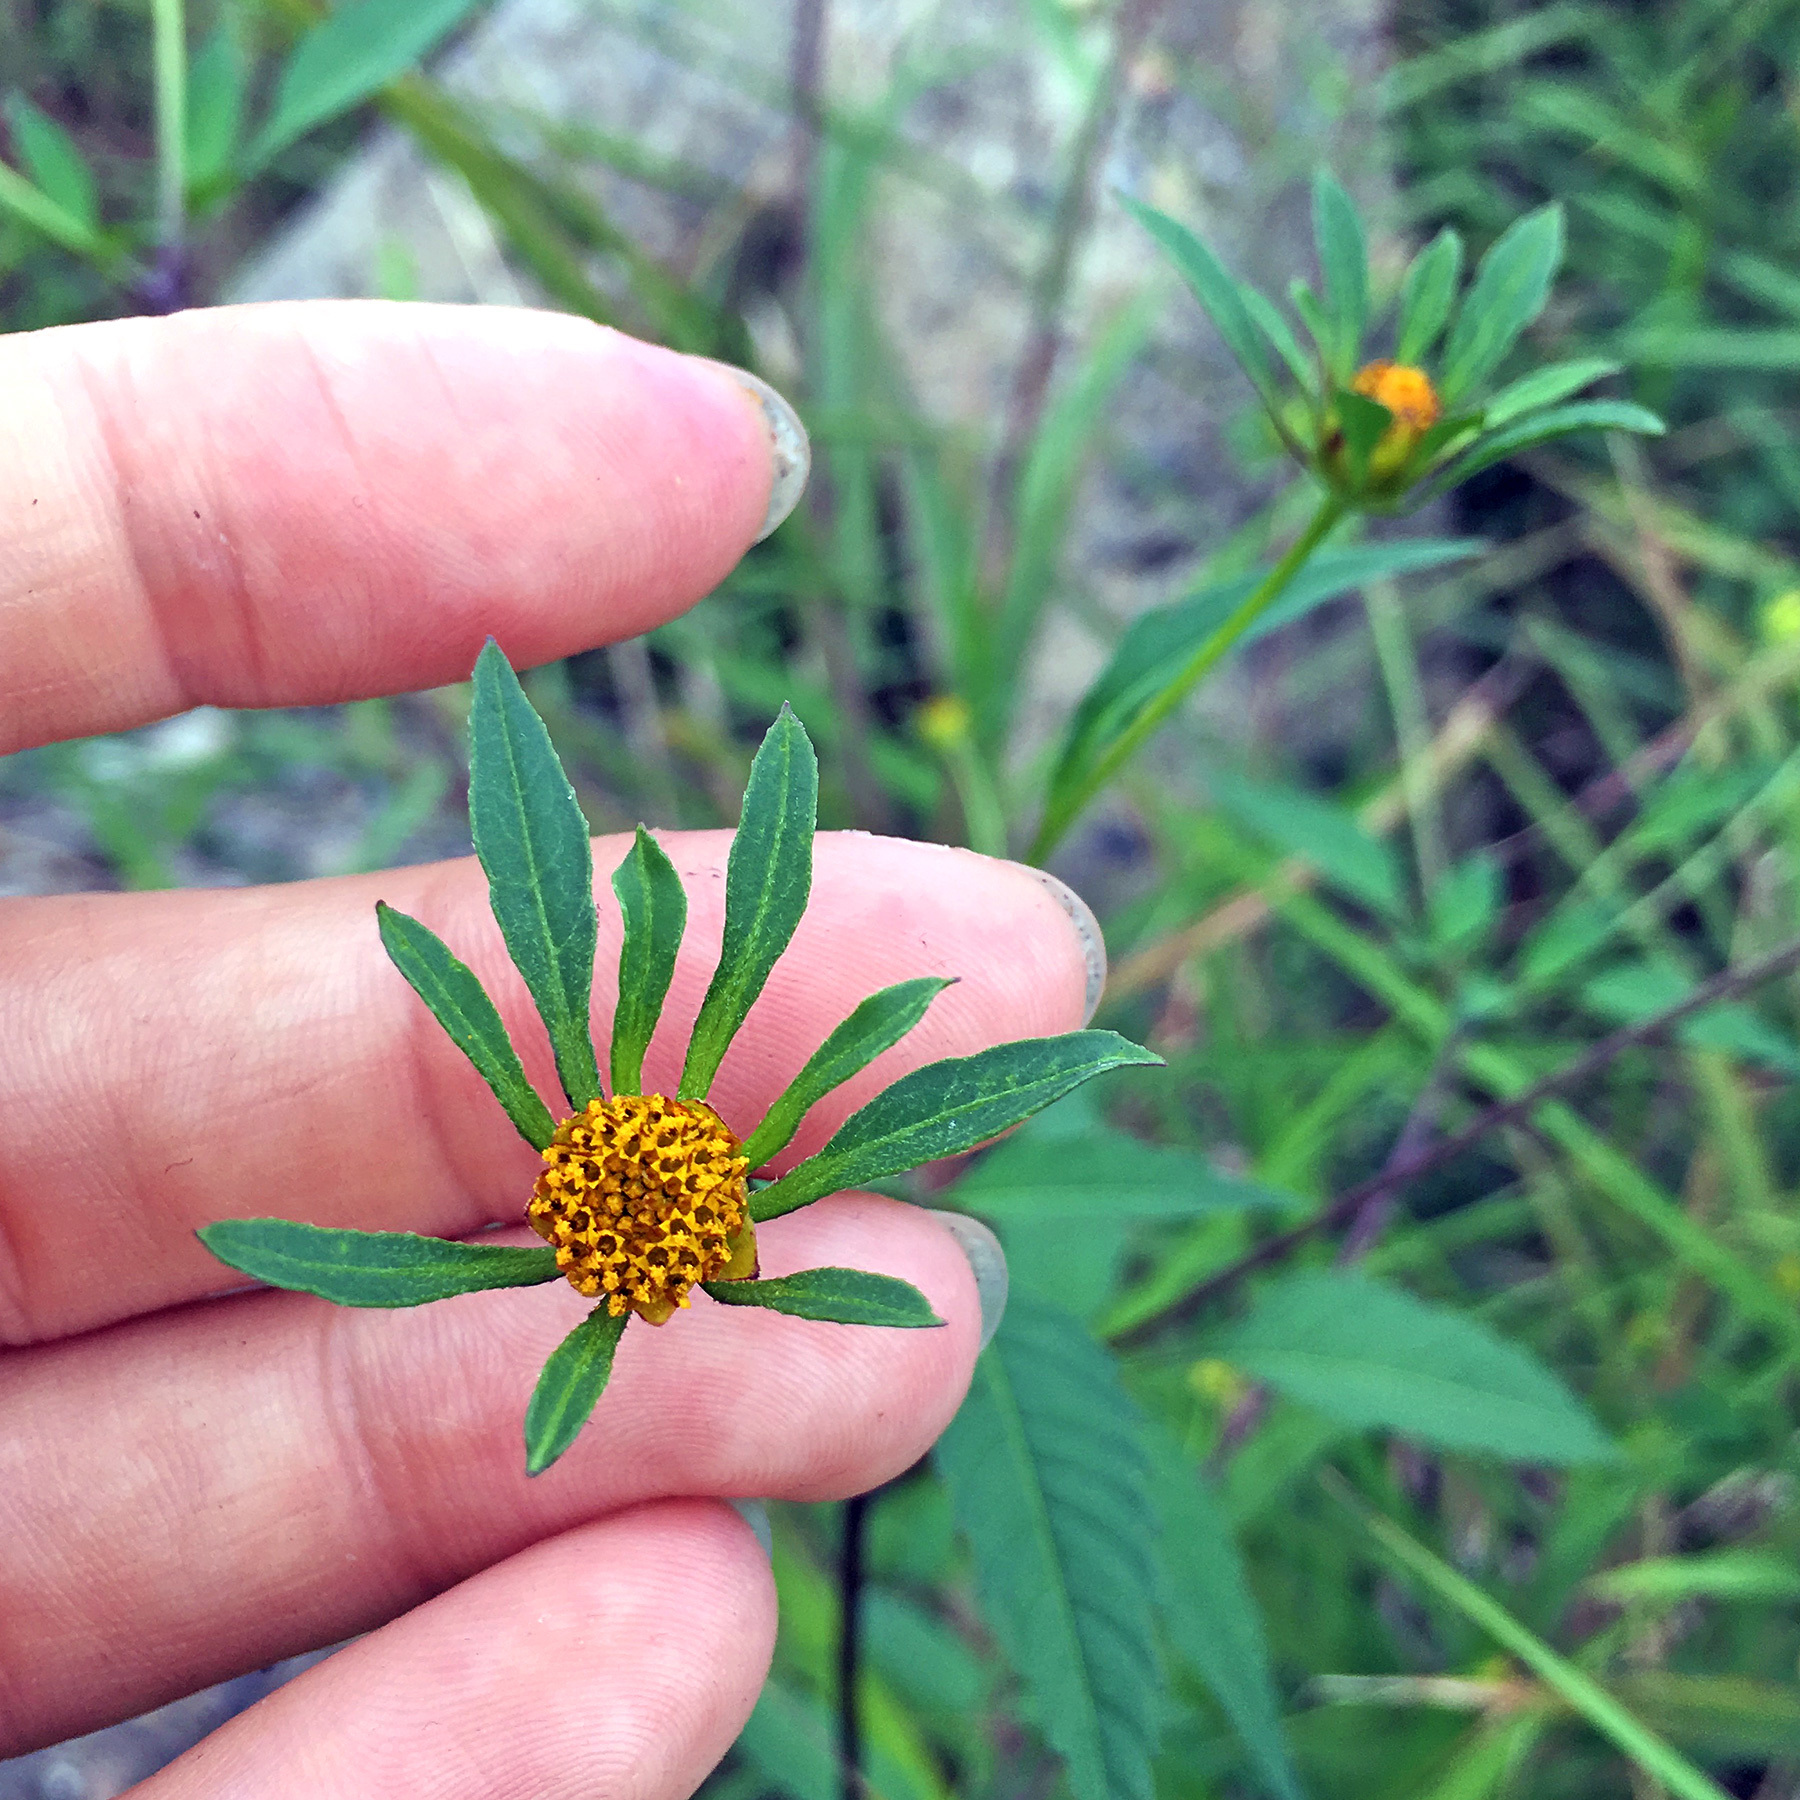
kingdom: Plantae
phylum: Tracheophyta
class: Magnoliopsida
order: Asterales
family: Asteraceae
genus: Bidens
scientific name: Bidens frondosa
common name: Beggarticks
